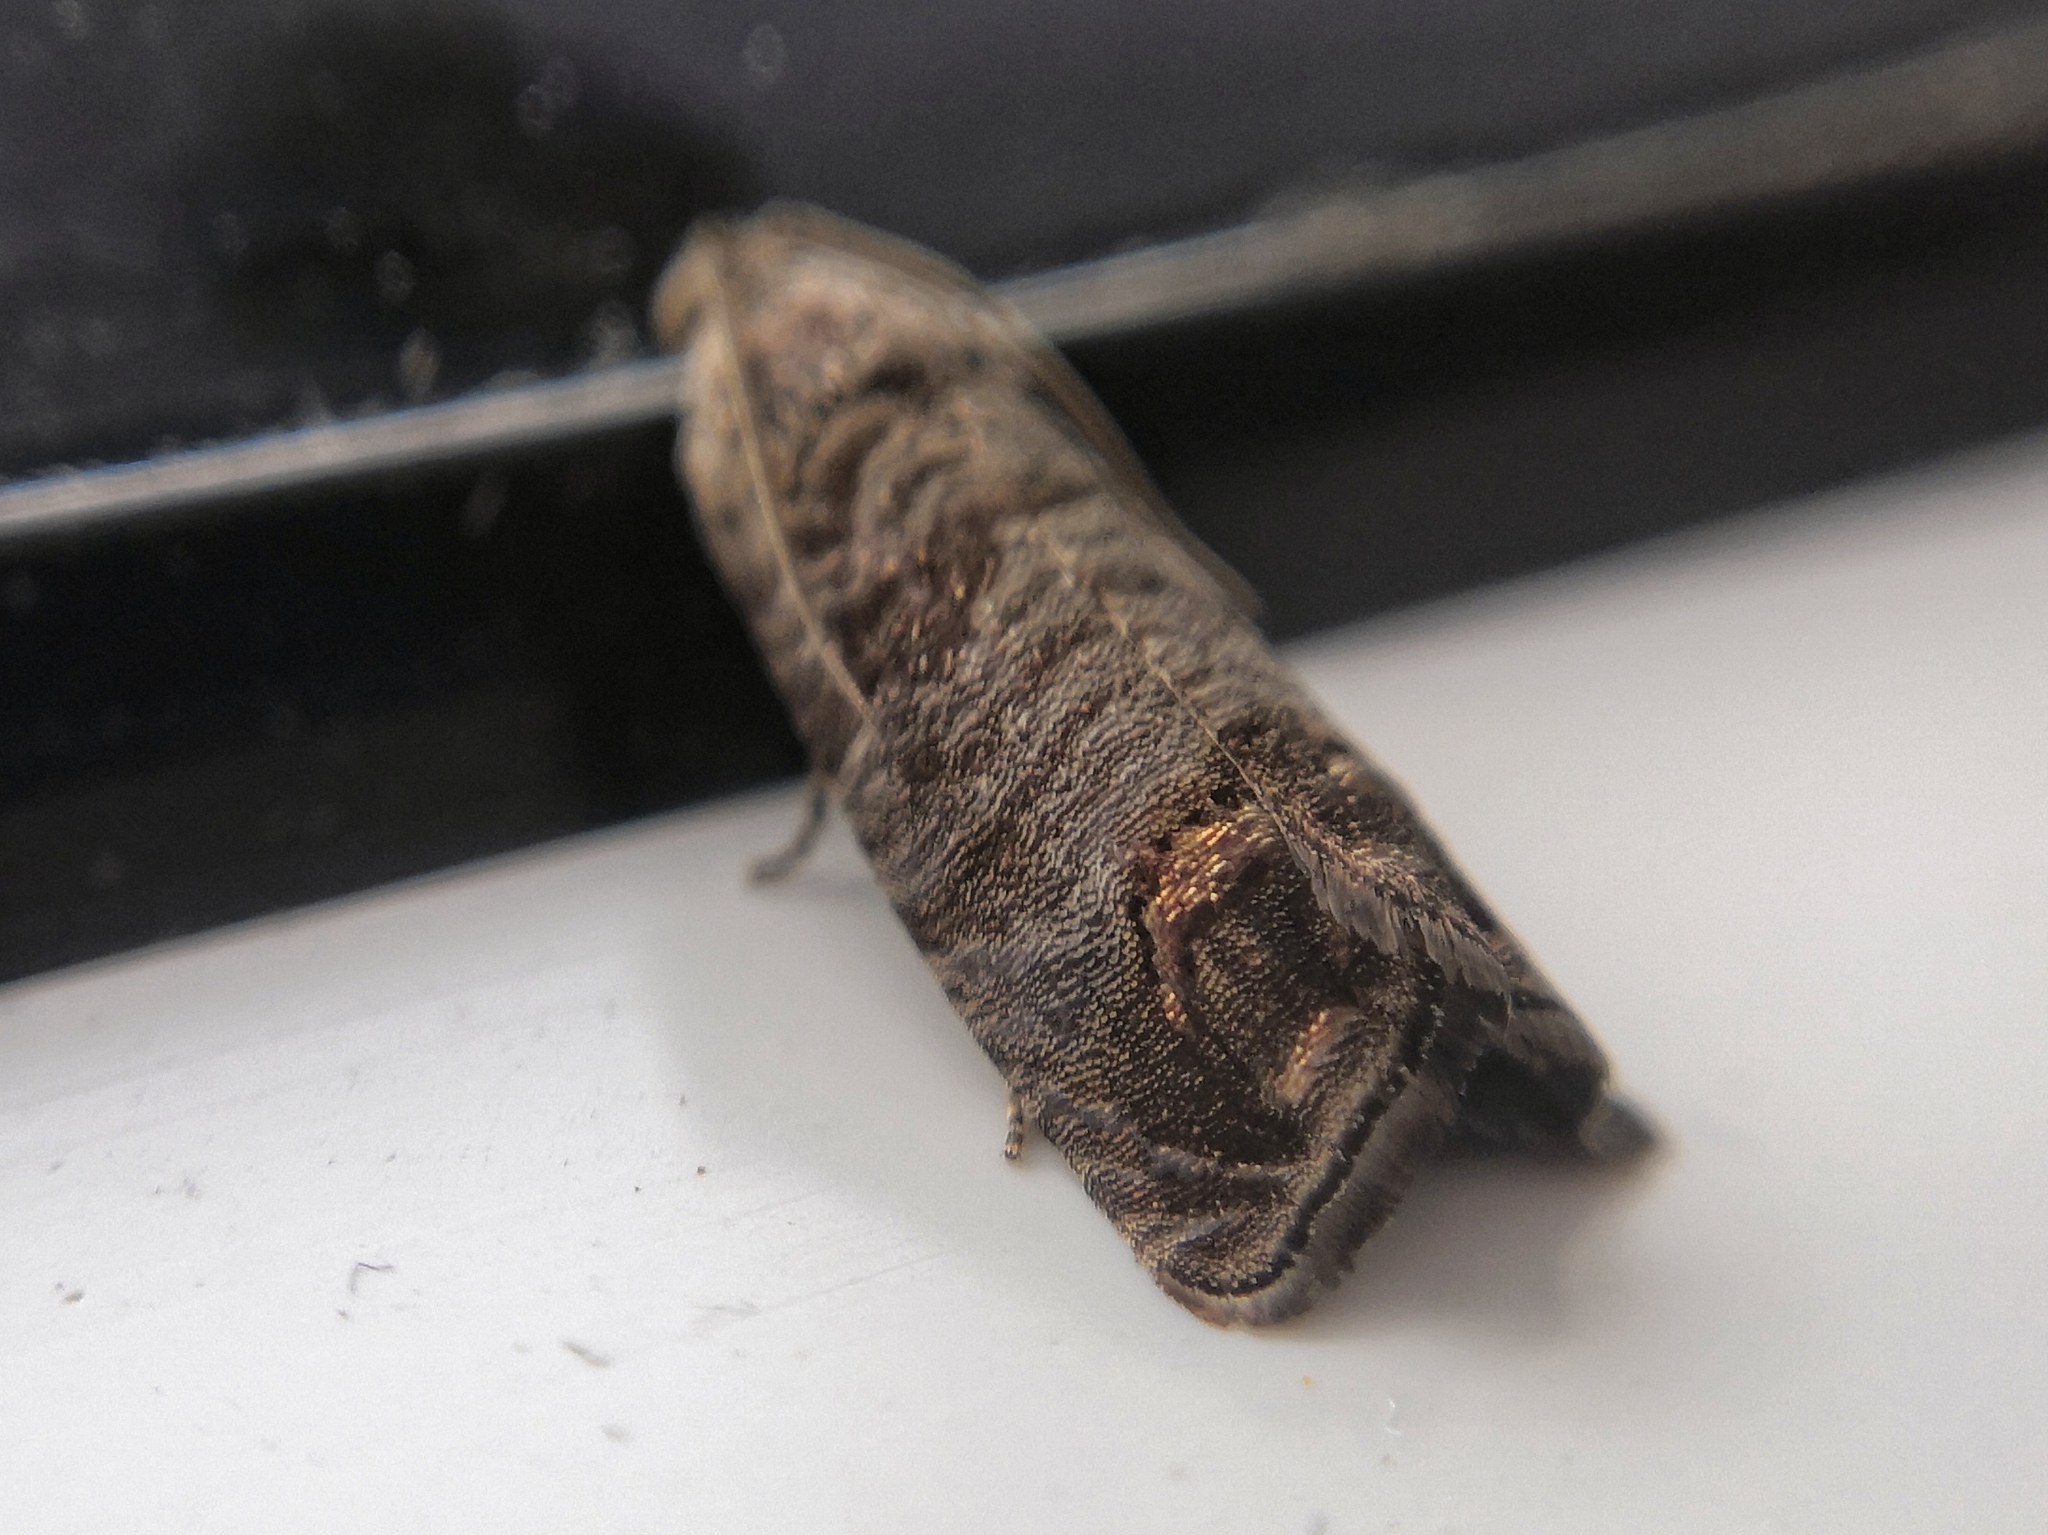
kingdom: Animalia
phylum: Arthropoda
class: Insecta
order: Lepidoptera
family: Tortricidae
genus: Cydia
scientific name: Cydia pomonella
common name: Codling moth
